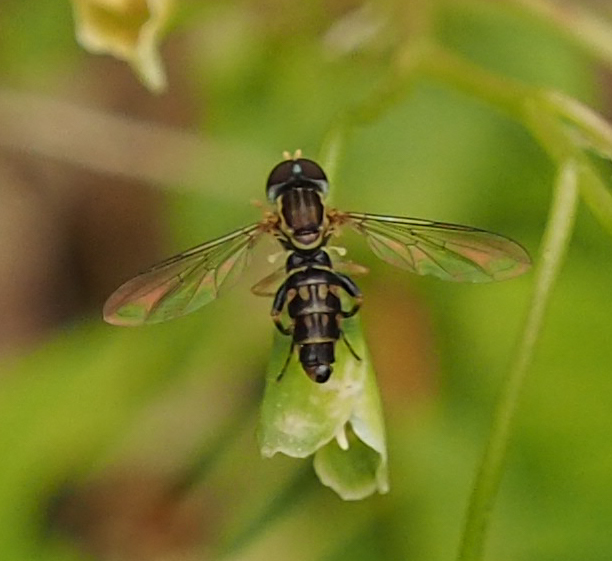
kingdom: Animalia
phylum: Arthropoda
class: Insecta
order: Diptera
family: Syrphidae
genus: Toxomerus
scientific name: Toxomerus geminatus
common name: Eastern calligrapher
